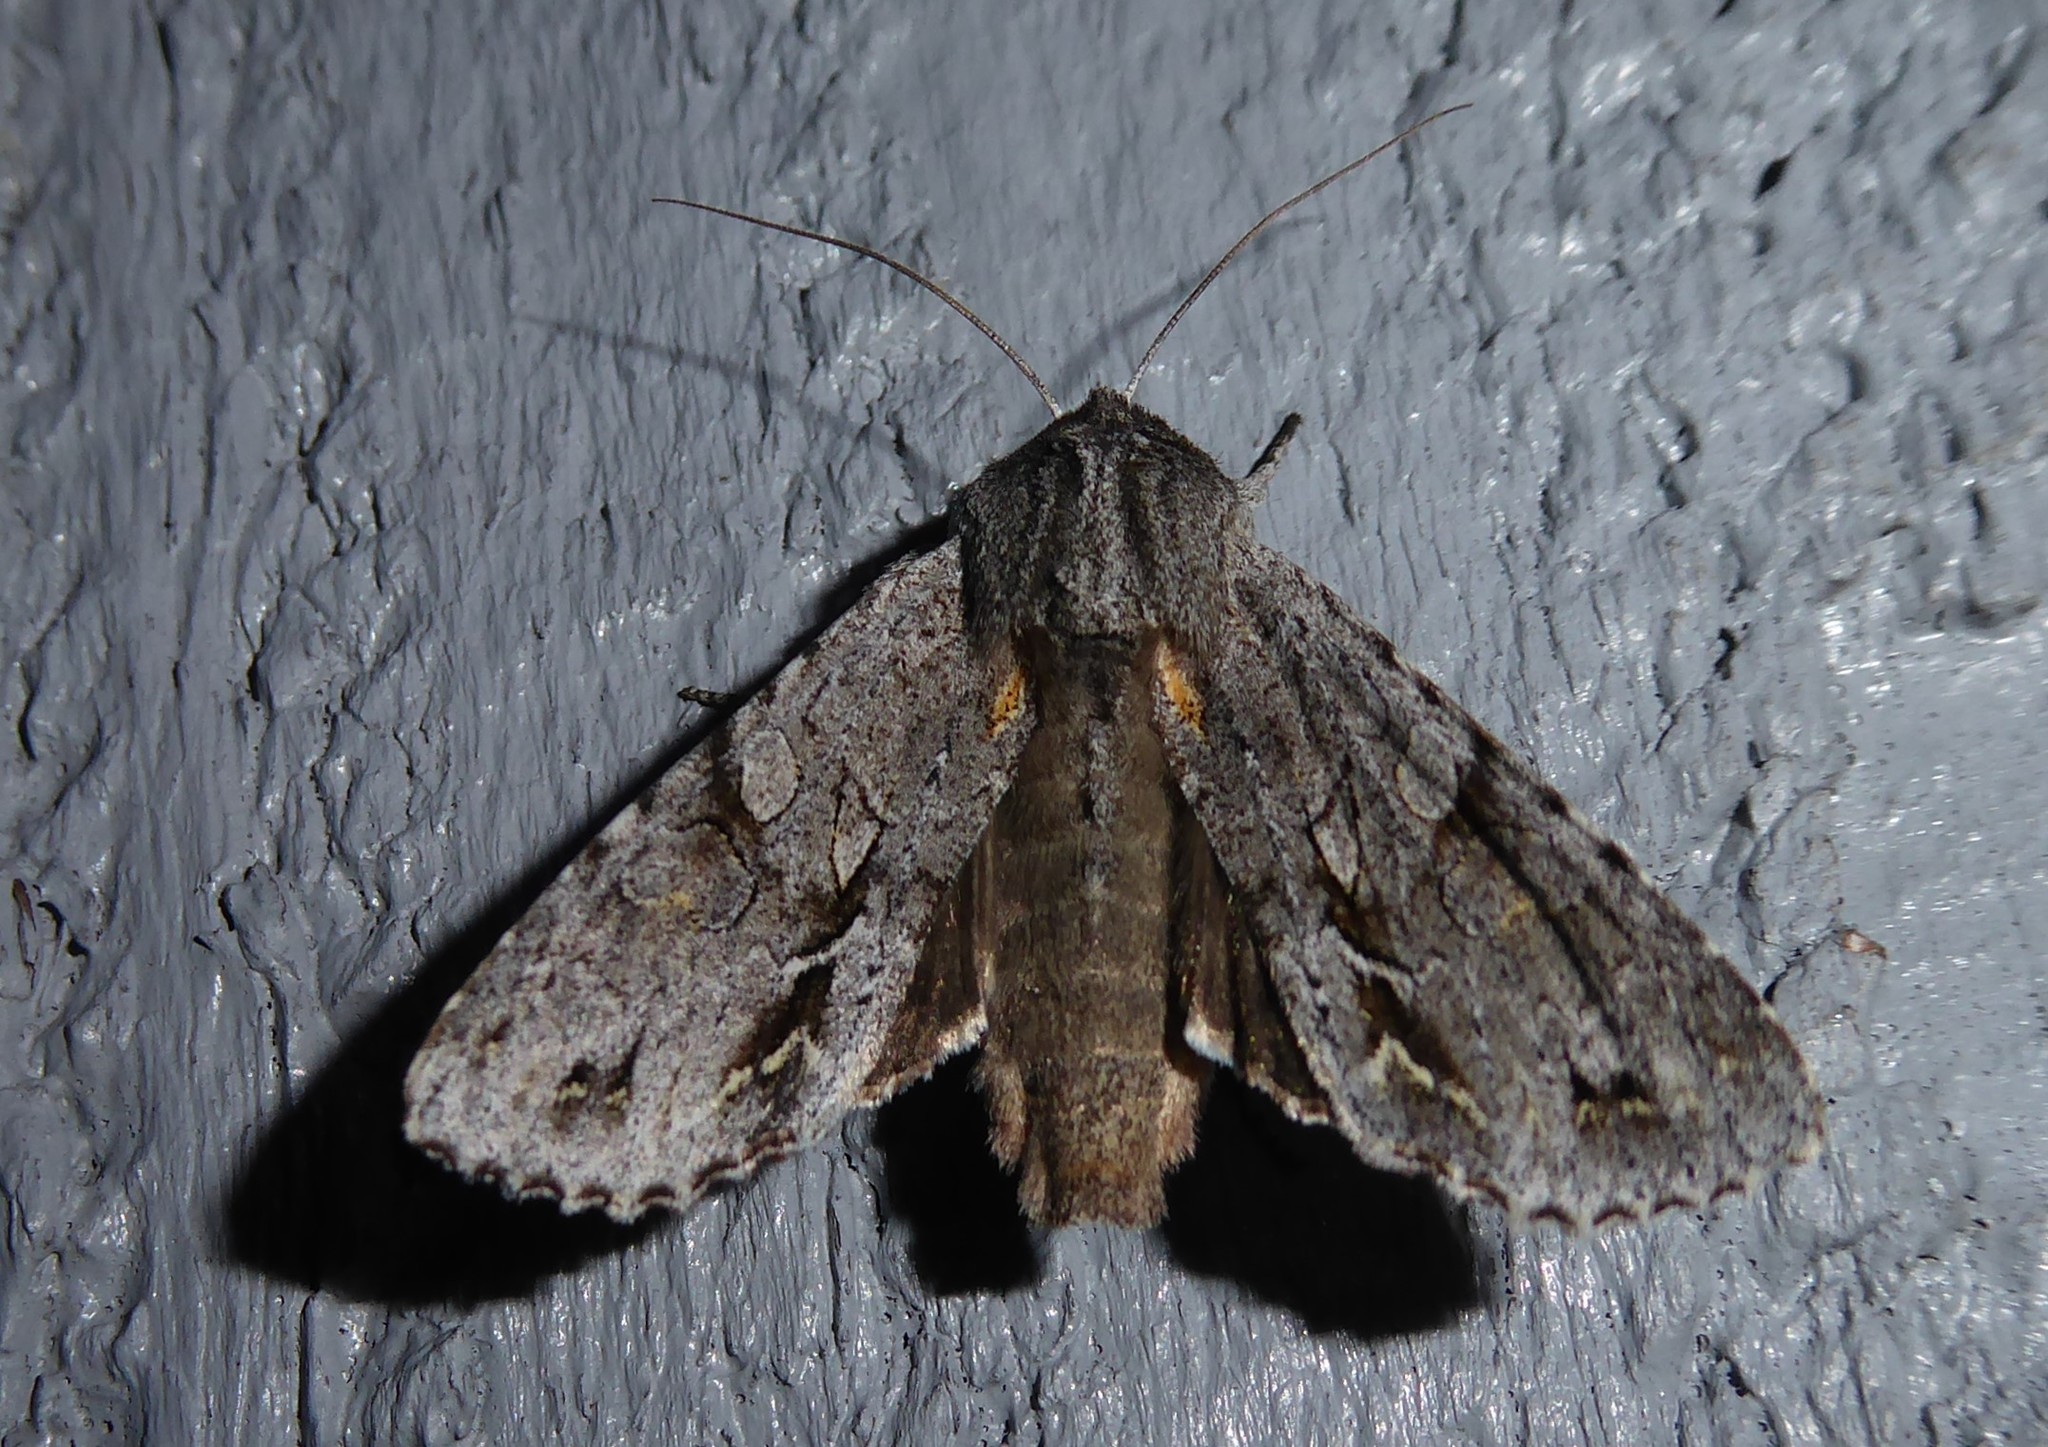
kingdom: Animalia
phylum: Arthropoda
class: Insecta
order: Lepidoptera
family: Noctuidae
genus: Ichneutica
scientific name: Ichneutica
